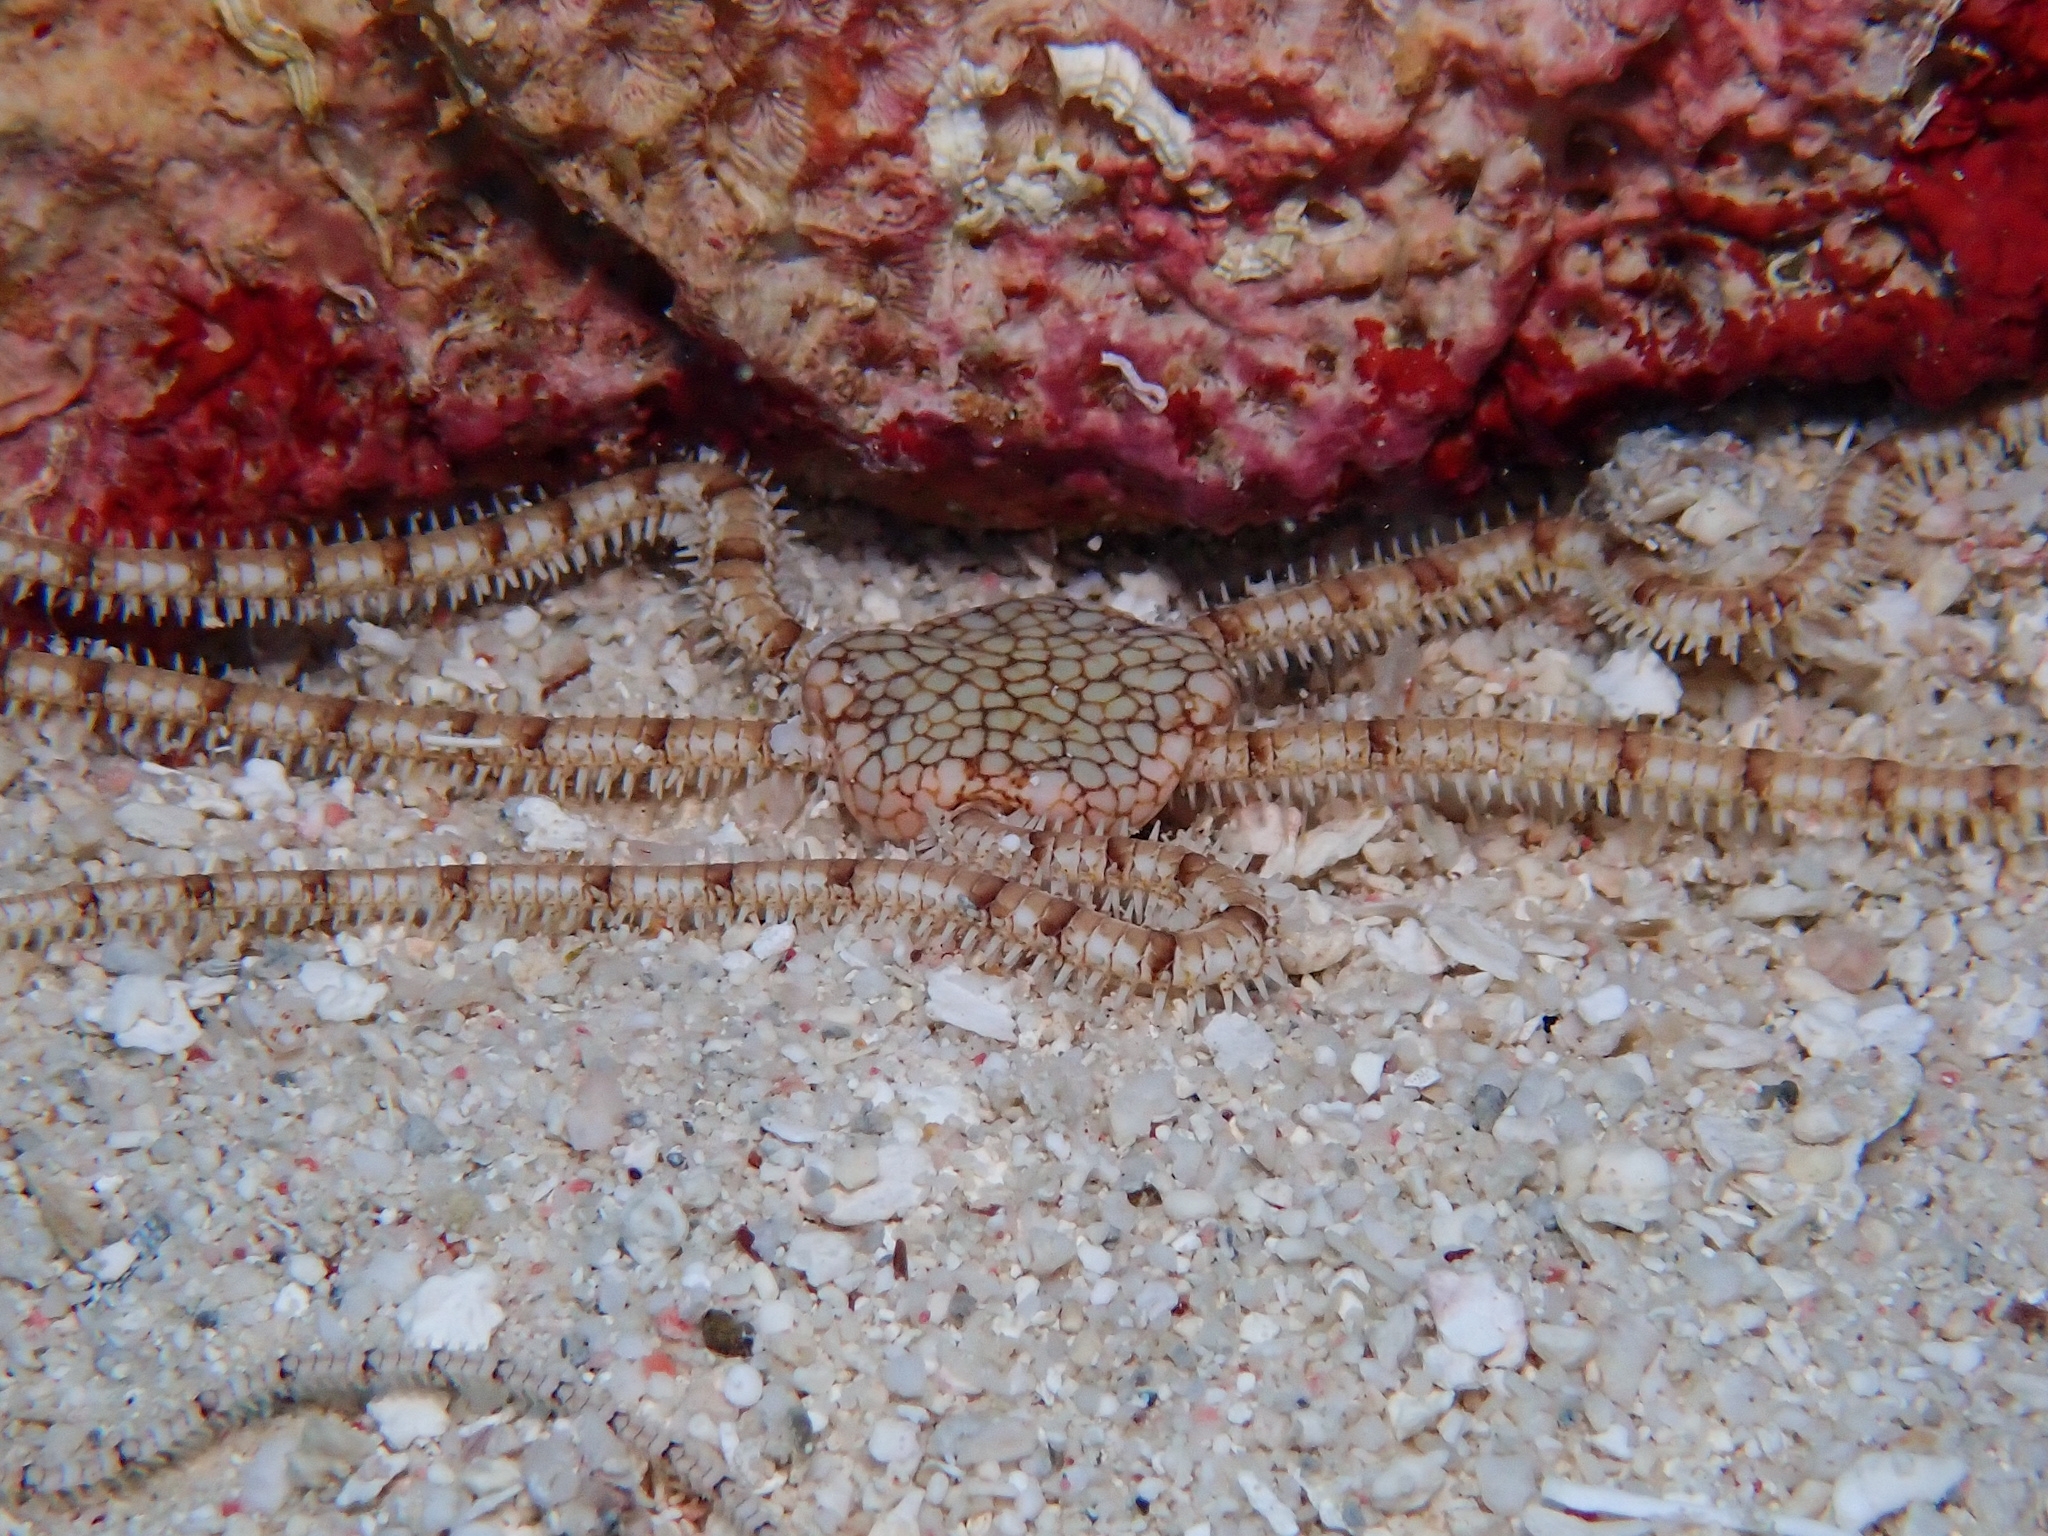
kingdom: Animalia
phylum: Echinodermata
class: Ophiuroidea
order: Amphilepidida
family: Ophionereididae
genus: Ophionereis
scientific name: Ophionereis reticulata
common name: Reticulate brittle star
